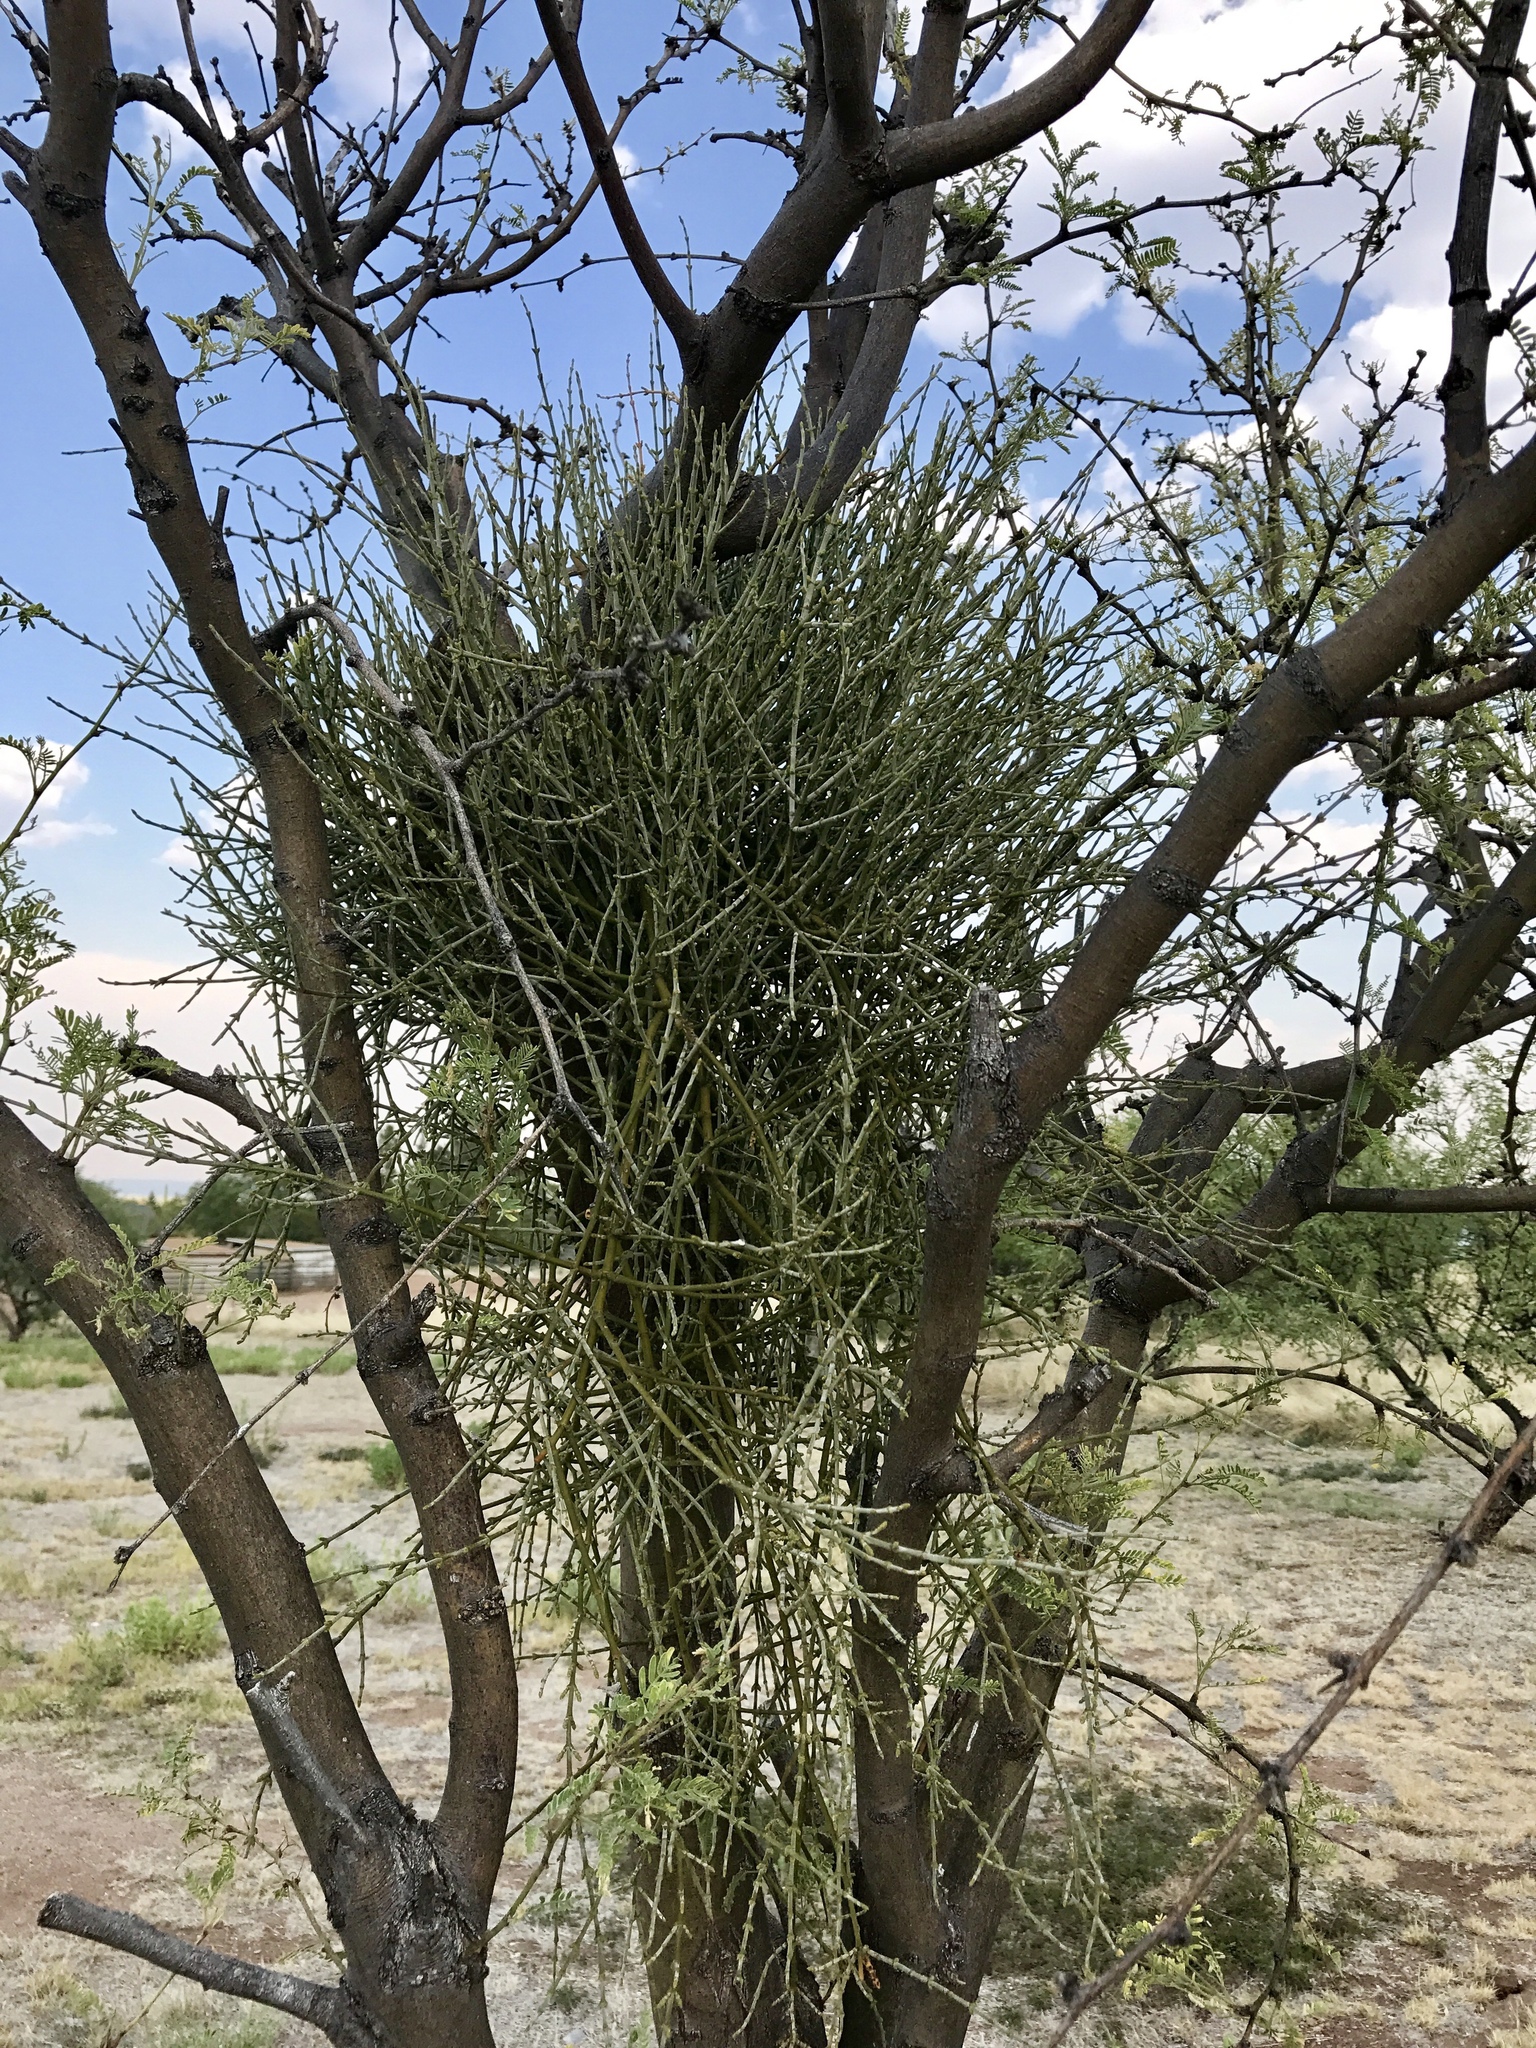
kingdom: Plantae
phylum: Tracheophyta
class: Magnoliopsida
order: Santalales
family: Viscaceae
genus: Phoradendron
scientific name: Phoradendron californicum
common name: Acacia mistletoe
